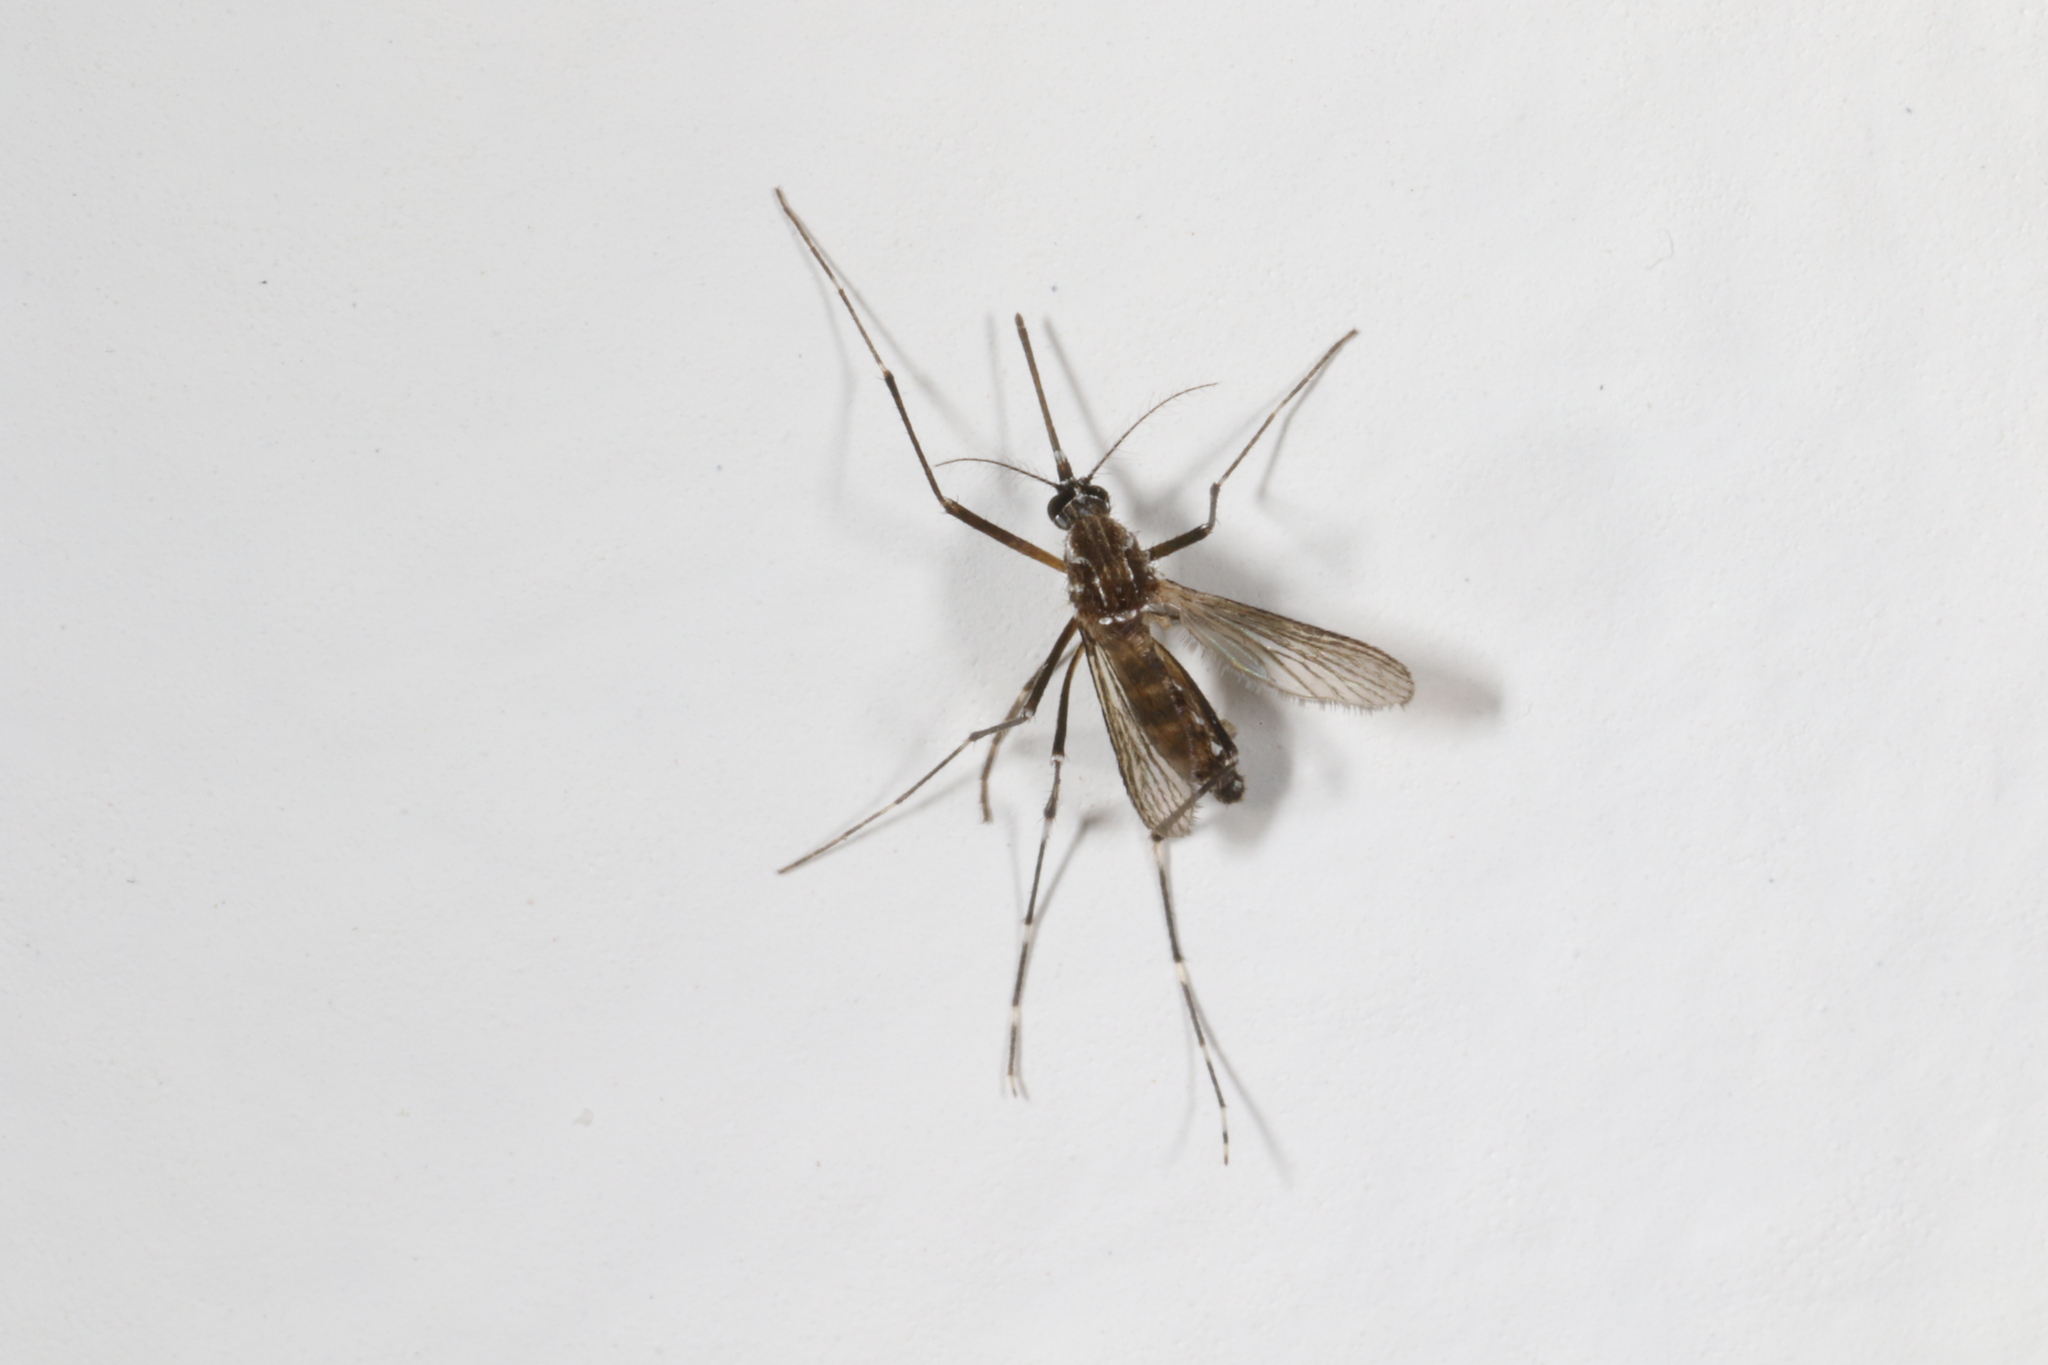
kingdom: Animalia
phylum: Arthropoda
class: Insecta
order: Diptera
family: Culicidae
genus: Aedes
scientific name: Aedes aegypti
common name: Yellow fever mosquito
